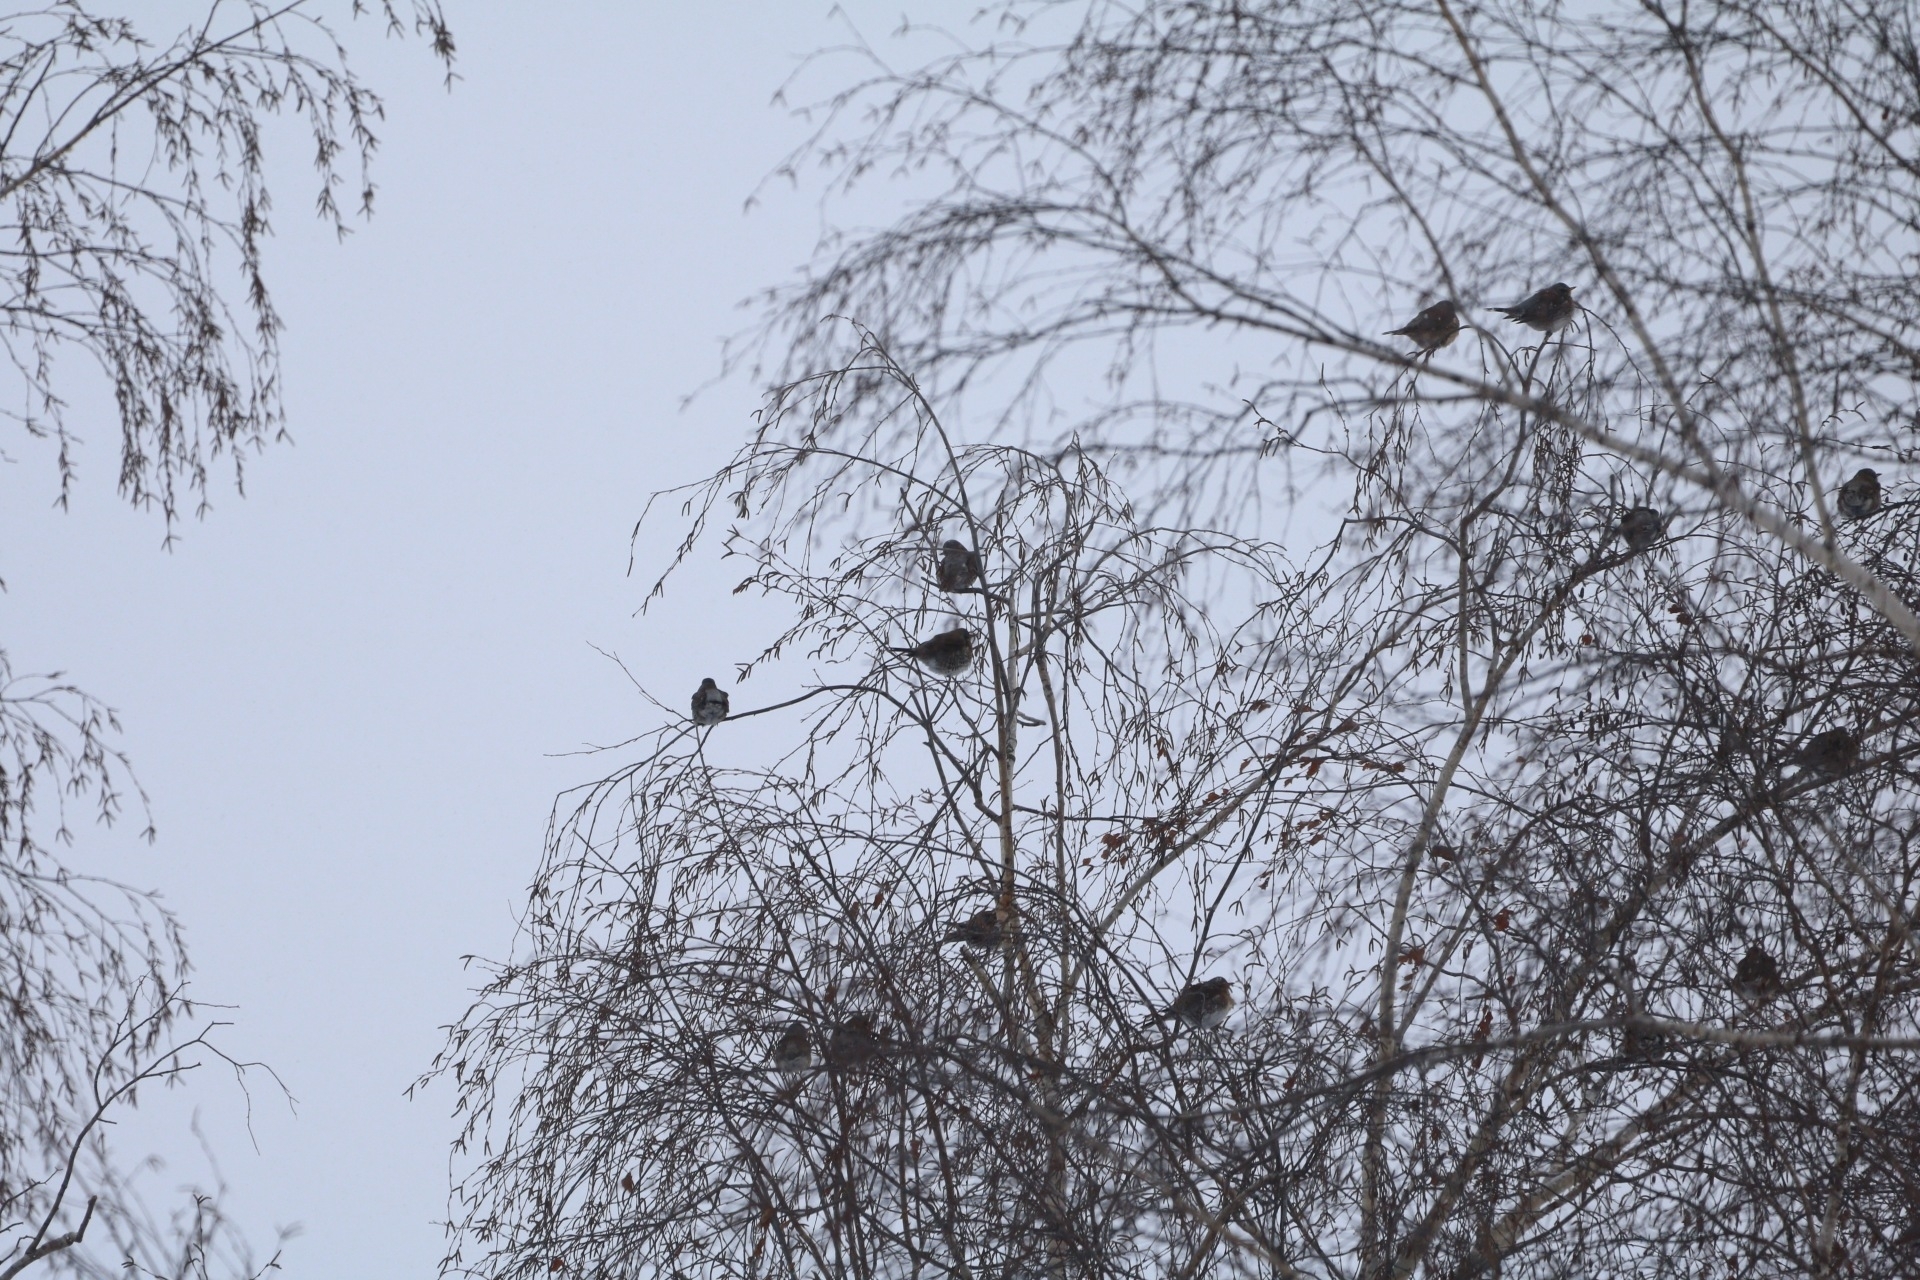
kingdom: Animalia
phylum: Chordata
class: Aves
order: Passeriformes
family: Turdidae
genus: Turdus
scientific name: Turdus pilaris
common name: Fieldfare
